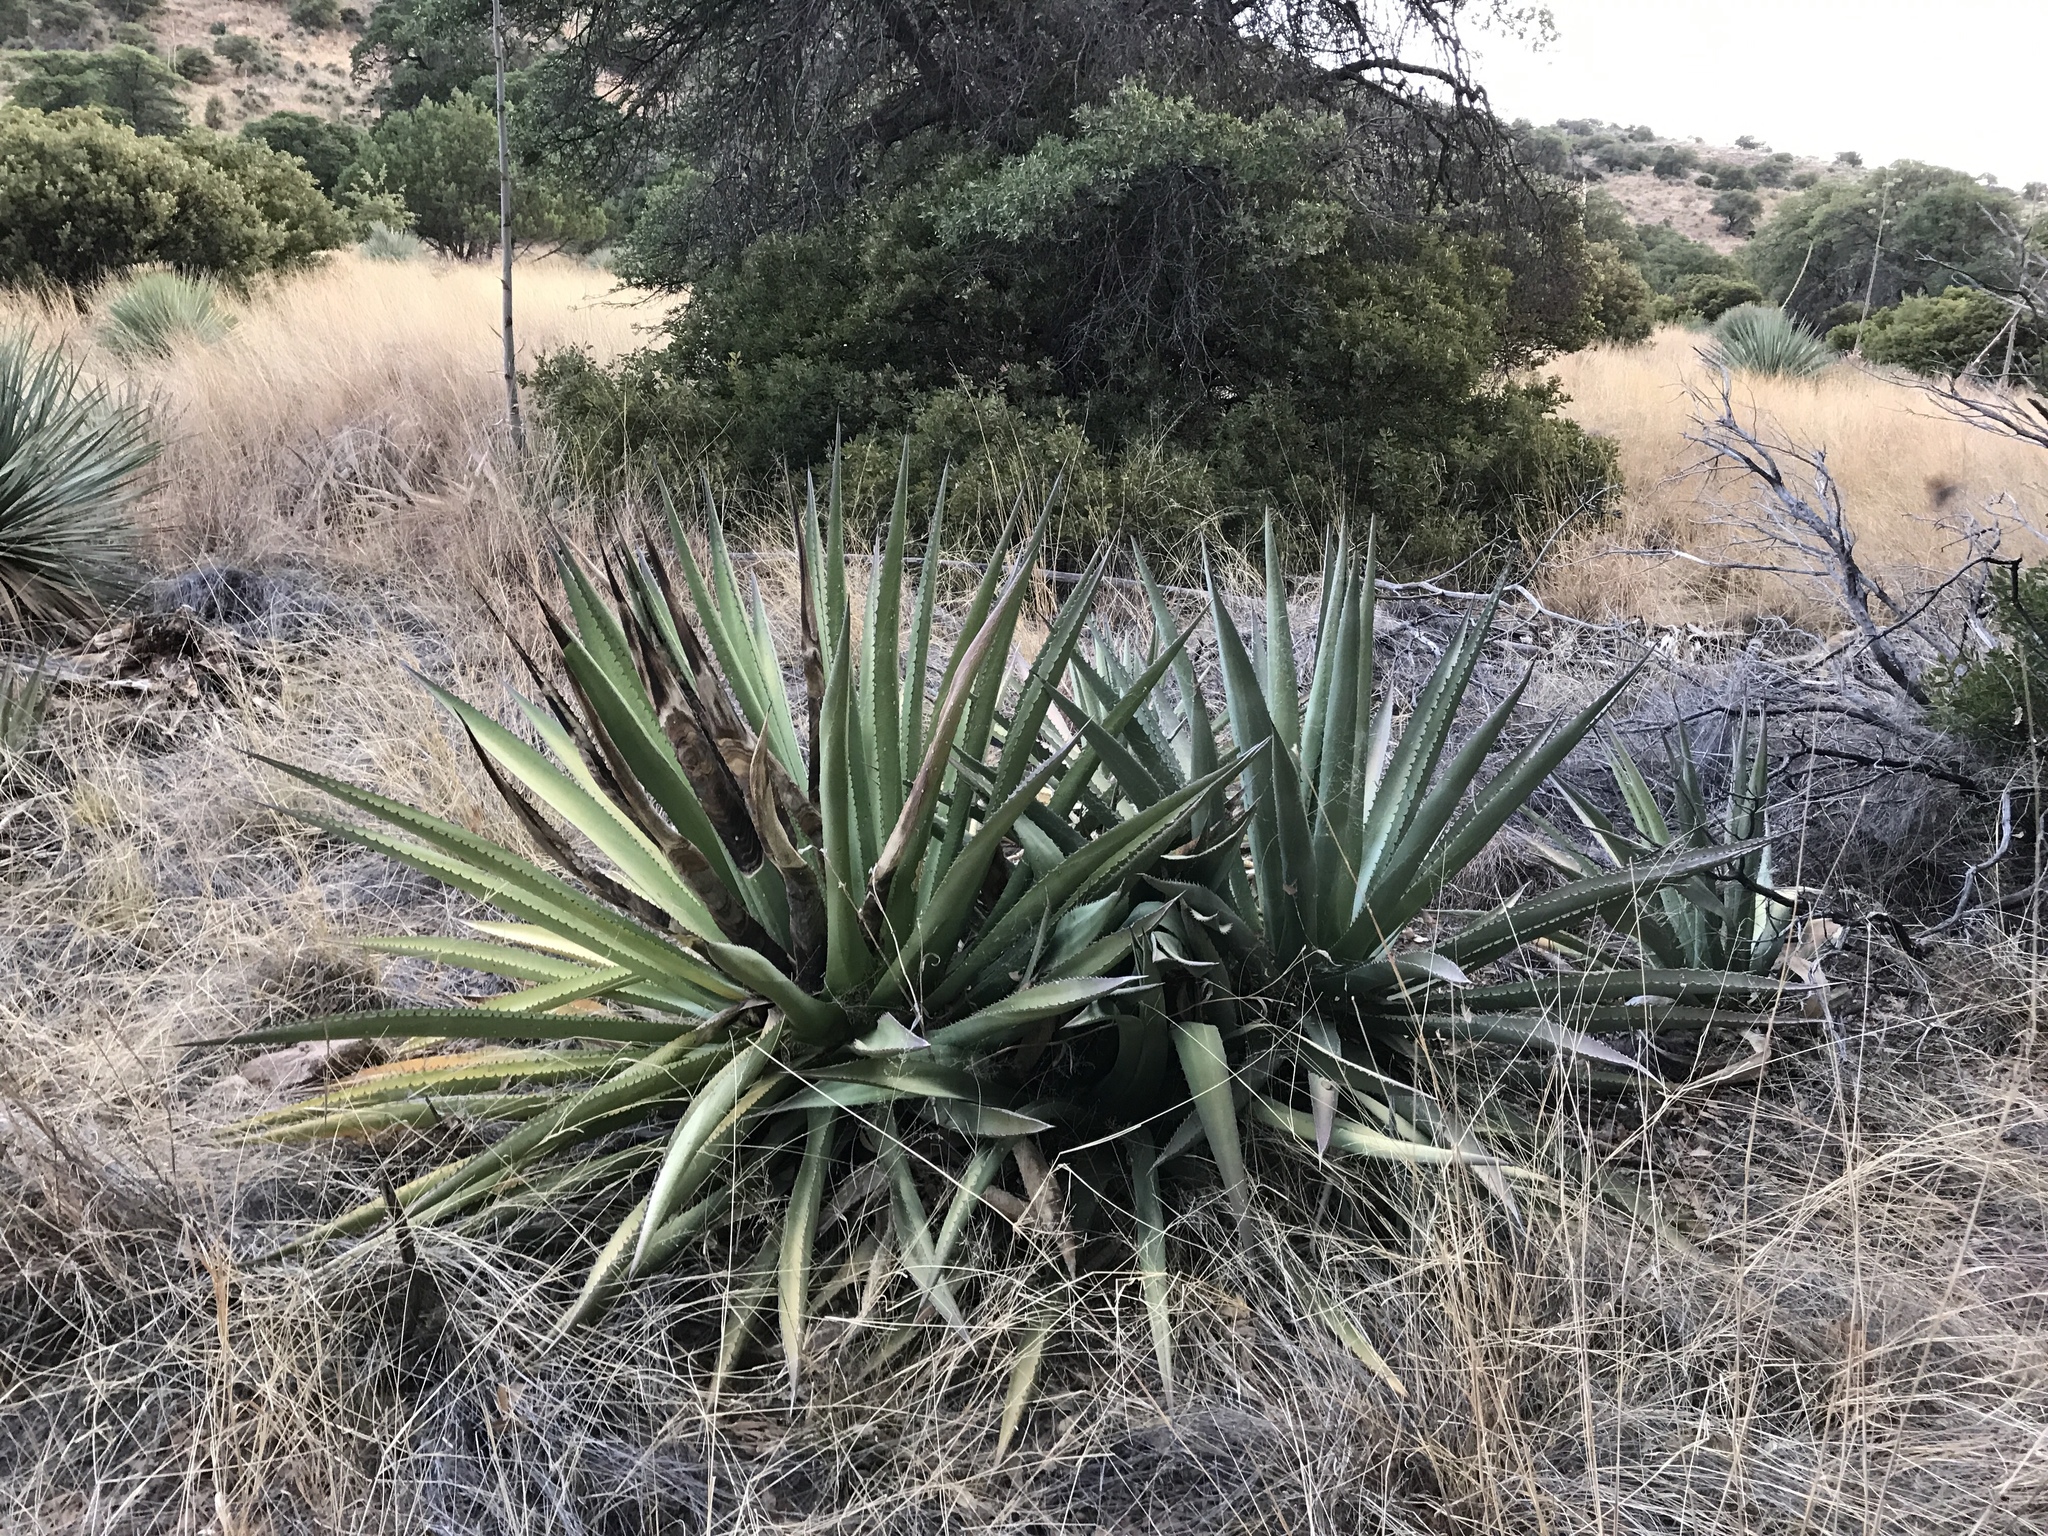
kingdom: Plantae
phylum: Tracheophyta
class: Liliopsida
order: Asparagales
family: Asparagaceae
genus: Agave
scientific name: Agave palmeri
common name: Palmer agave
